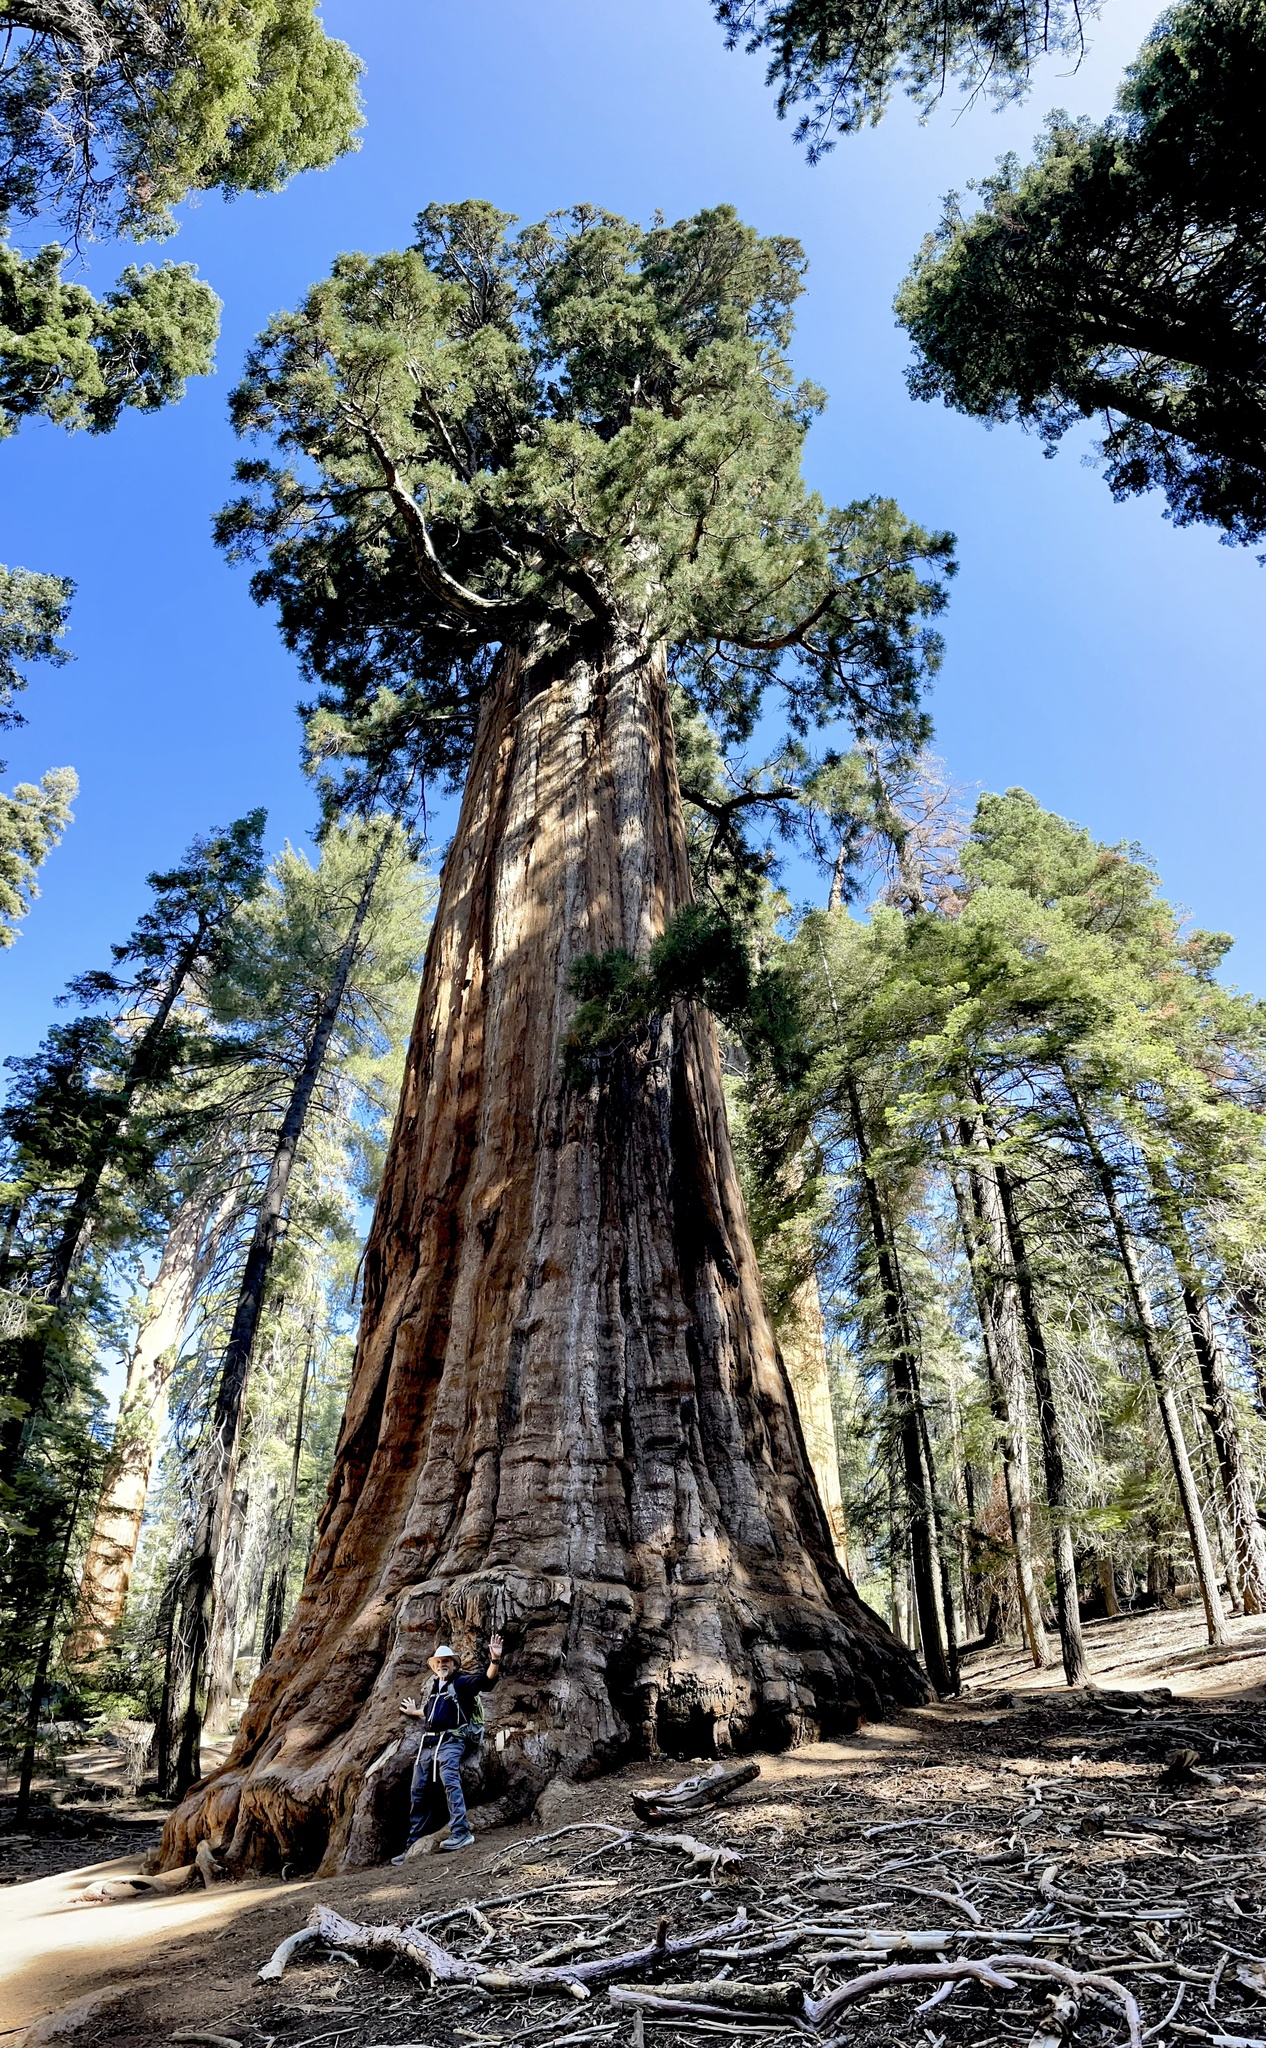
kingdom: Plantae
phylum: Tracheophyta
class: Pinopsida
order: Pinales
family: Cupressaceae
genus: Sequoiadendron
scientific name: Sequoiadendron giganteum
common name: Wellingtonia
